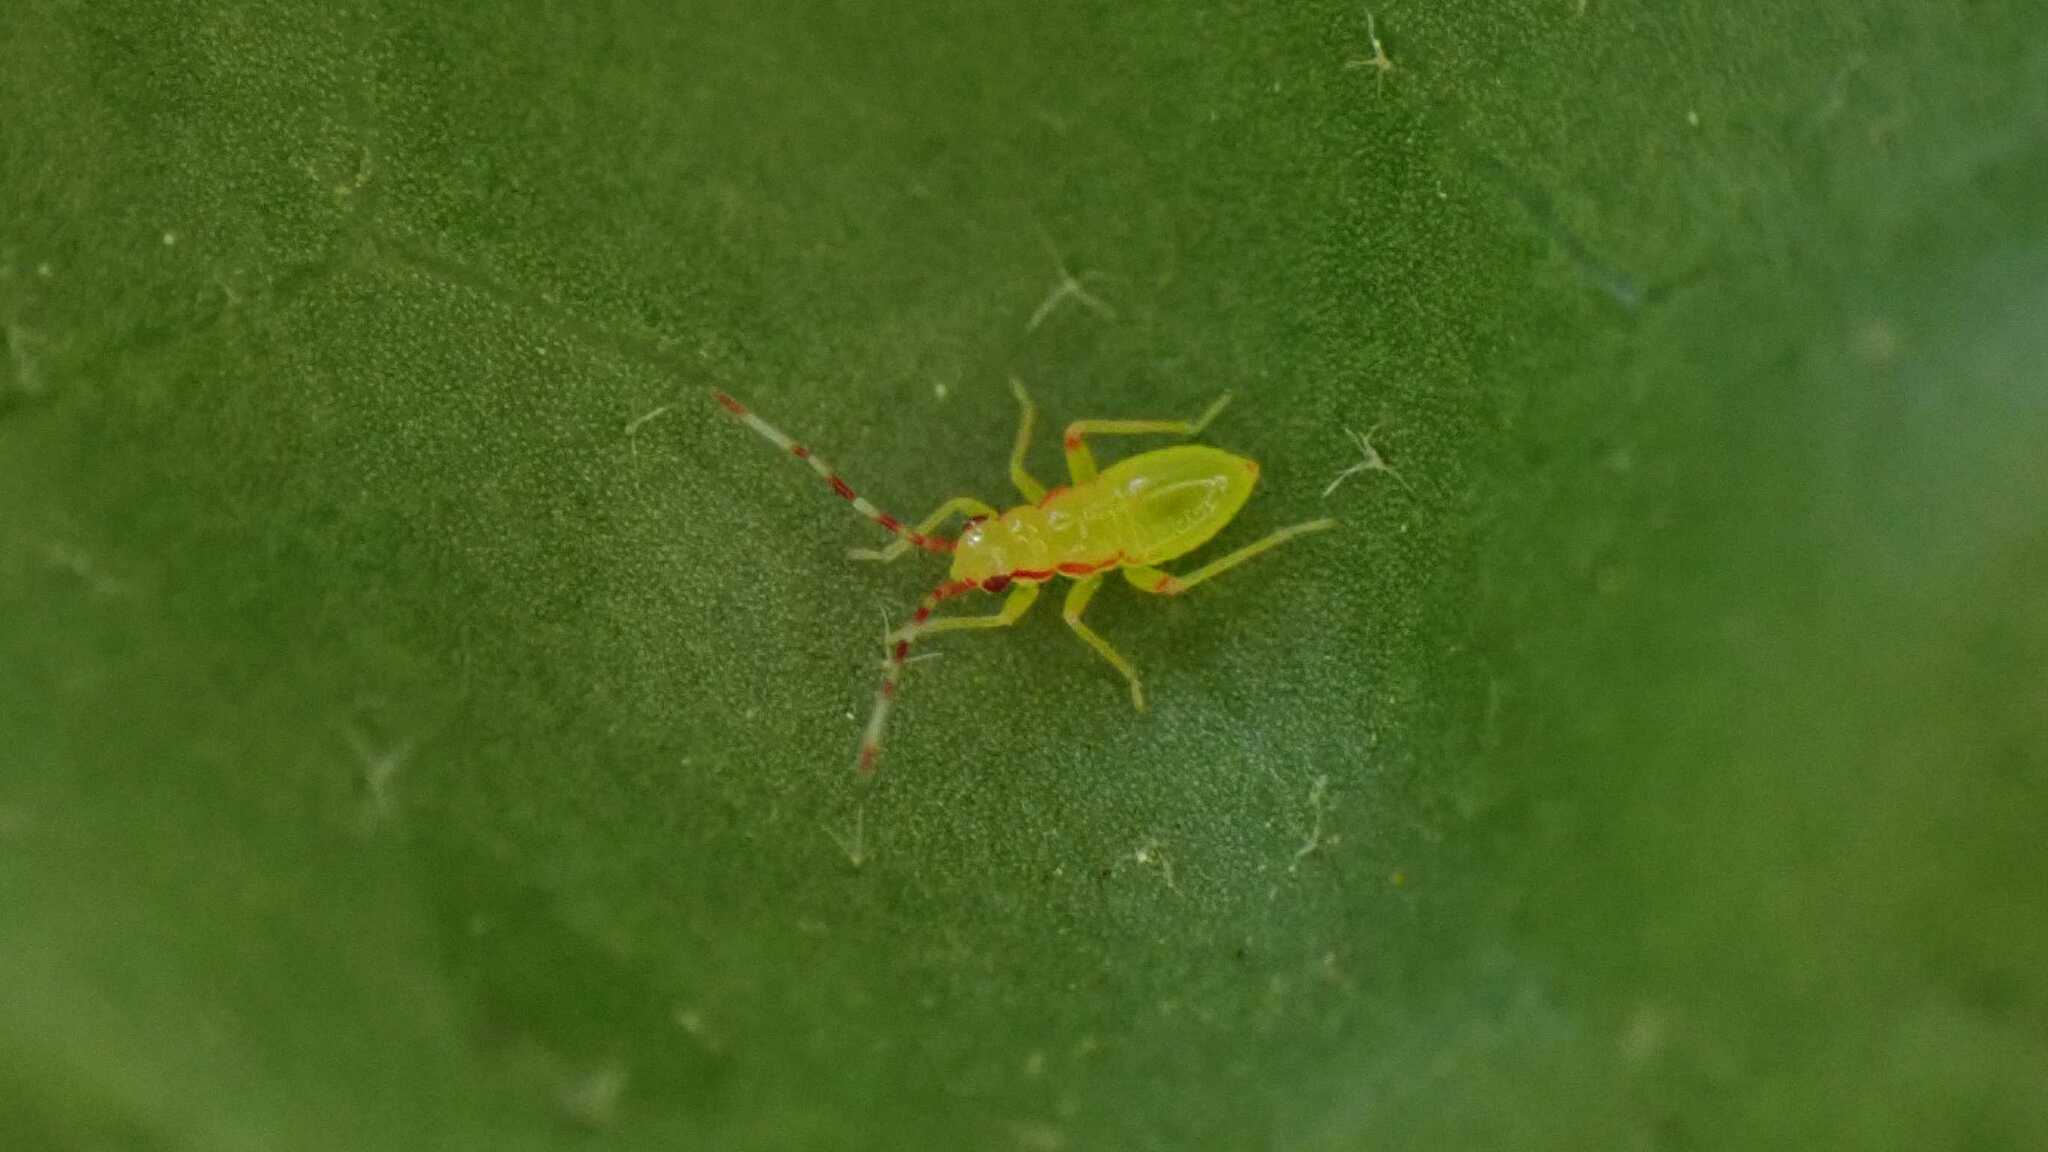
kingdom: Animalia
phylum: Arthropoda
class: Insecta
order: Hemiptera
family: Miridae
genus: Campyloneura
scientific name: Campyloneura virgula
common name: Predatory bug
